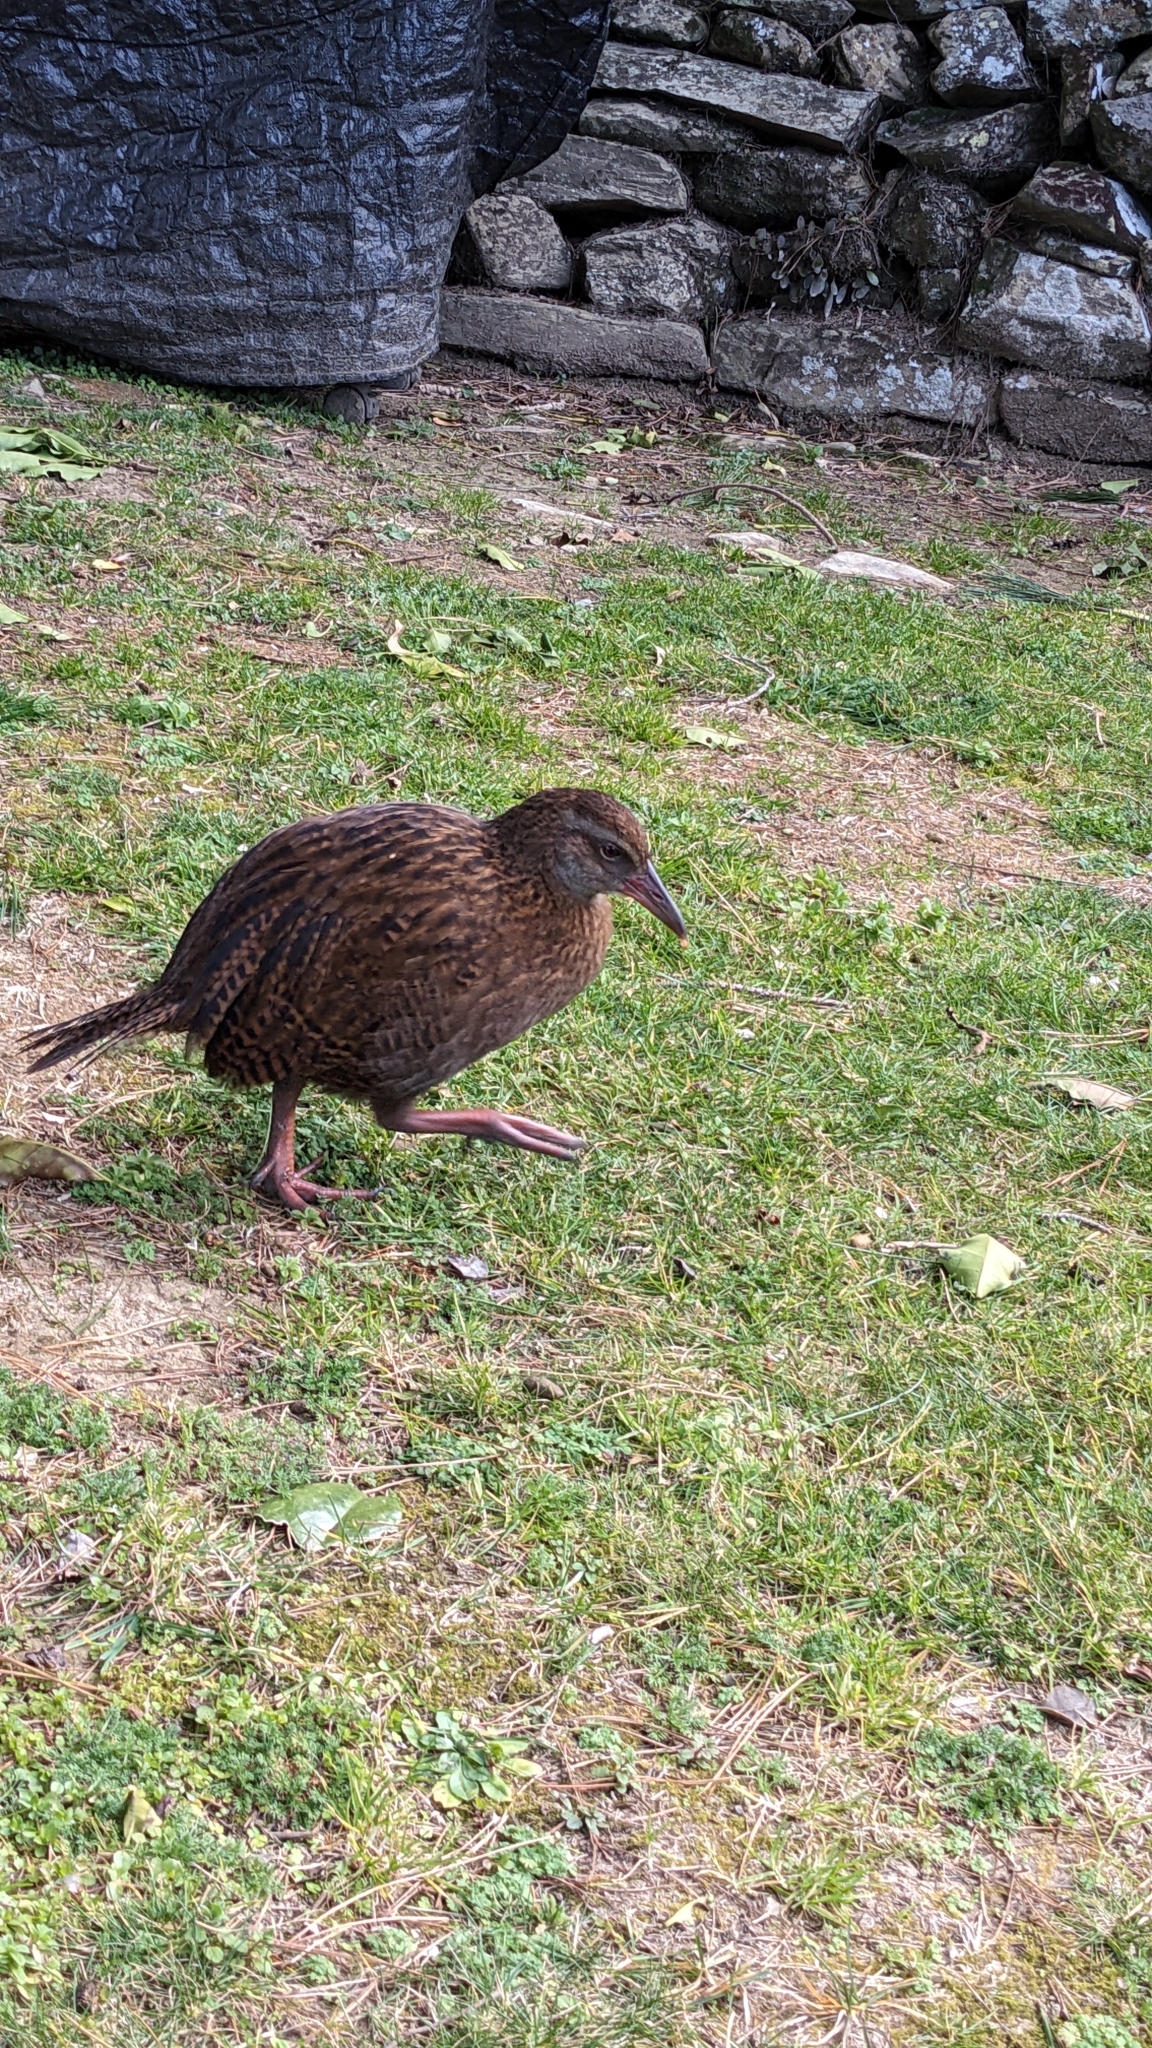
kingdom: Animalia
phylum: Chordata
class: Aves
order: Gruiformes
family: Rallidae
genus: Gallirallus
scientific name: Gallirallus australis
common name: Weka
